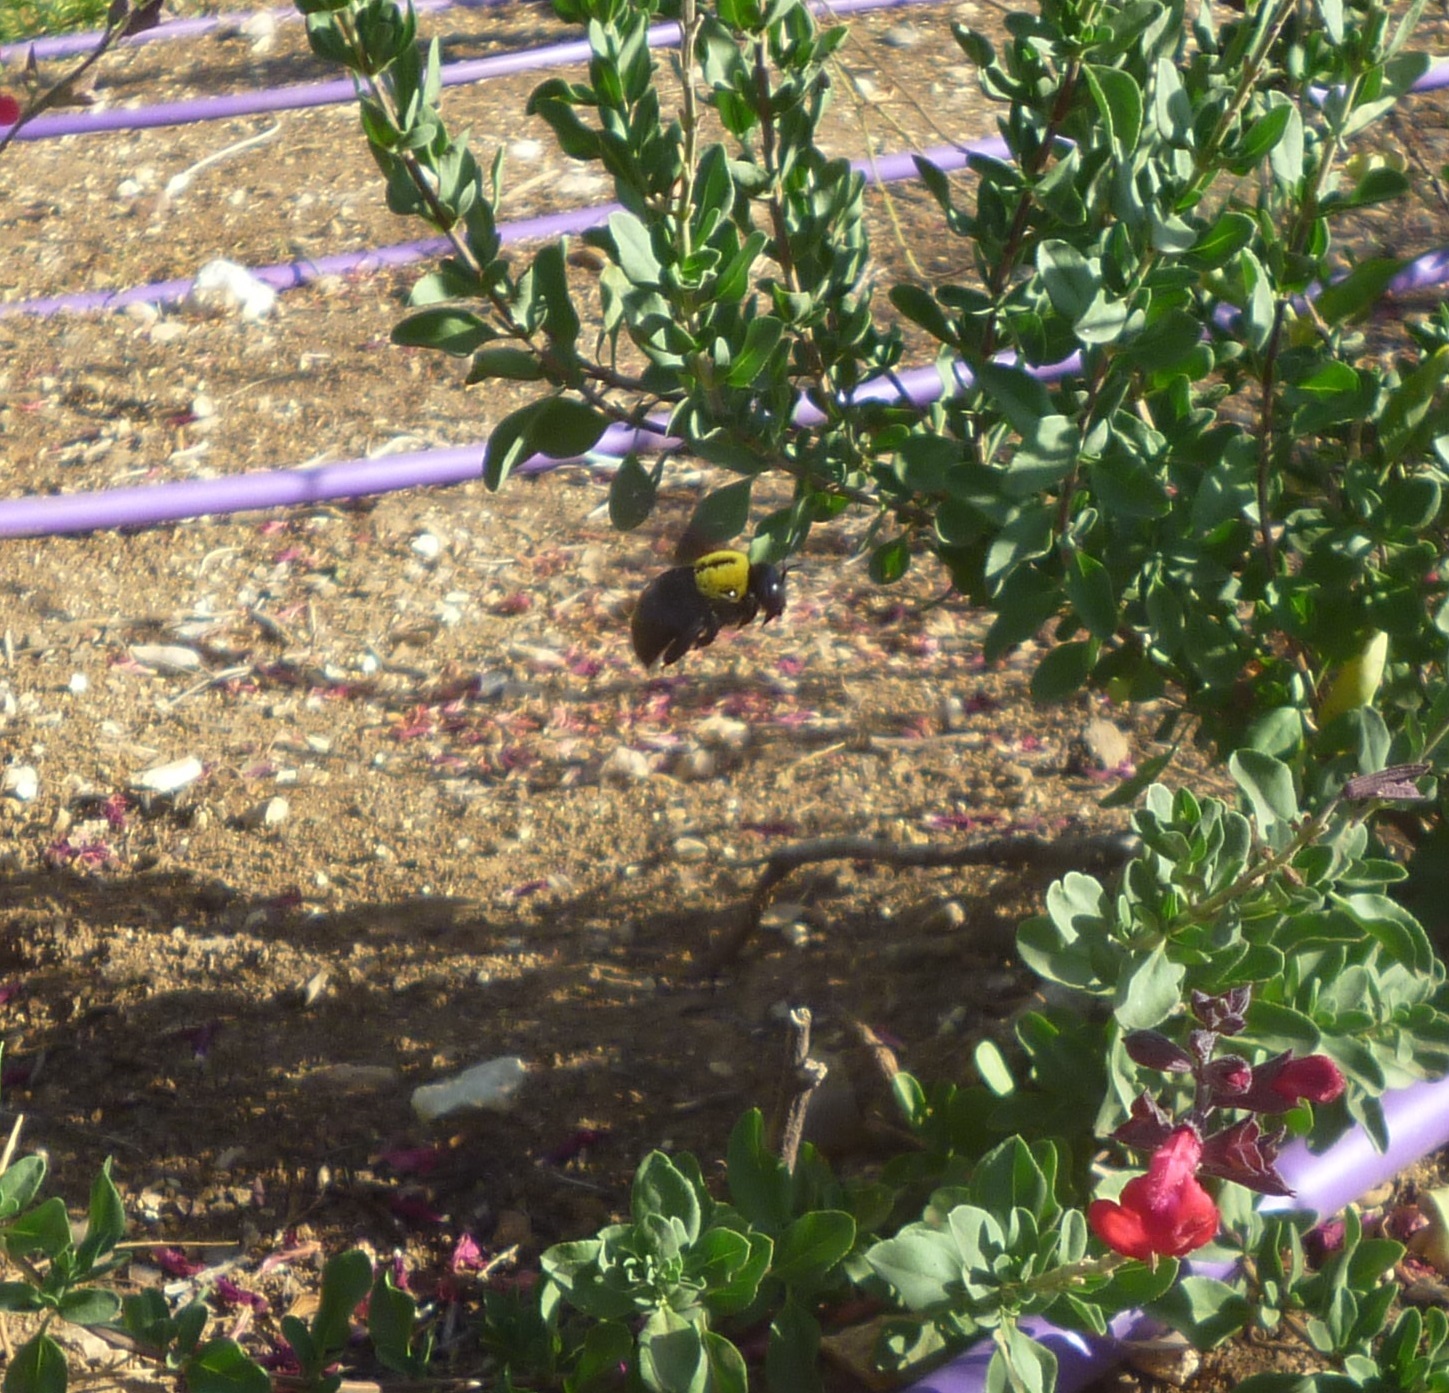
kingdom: Animalia
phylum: Arthropoda
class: Insecta
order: Hymenoptera
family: Apidae
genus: Xylocopa
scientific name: Xylocopa pubescens
